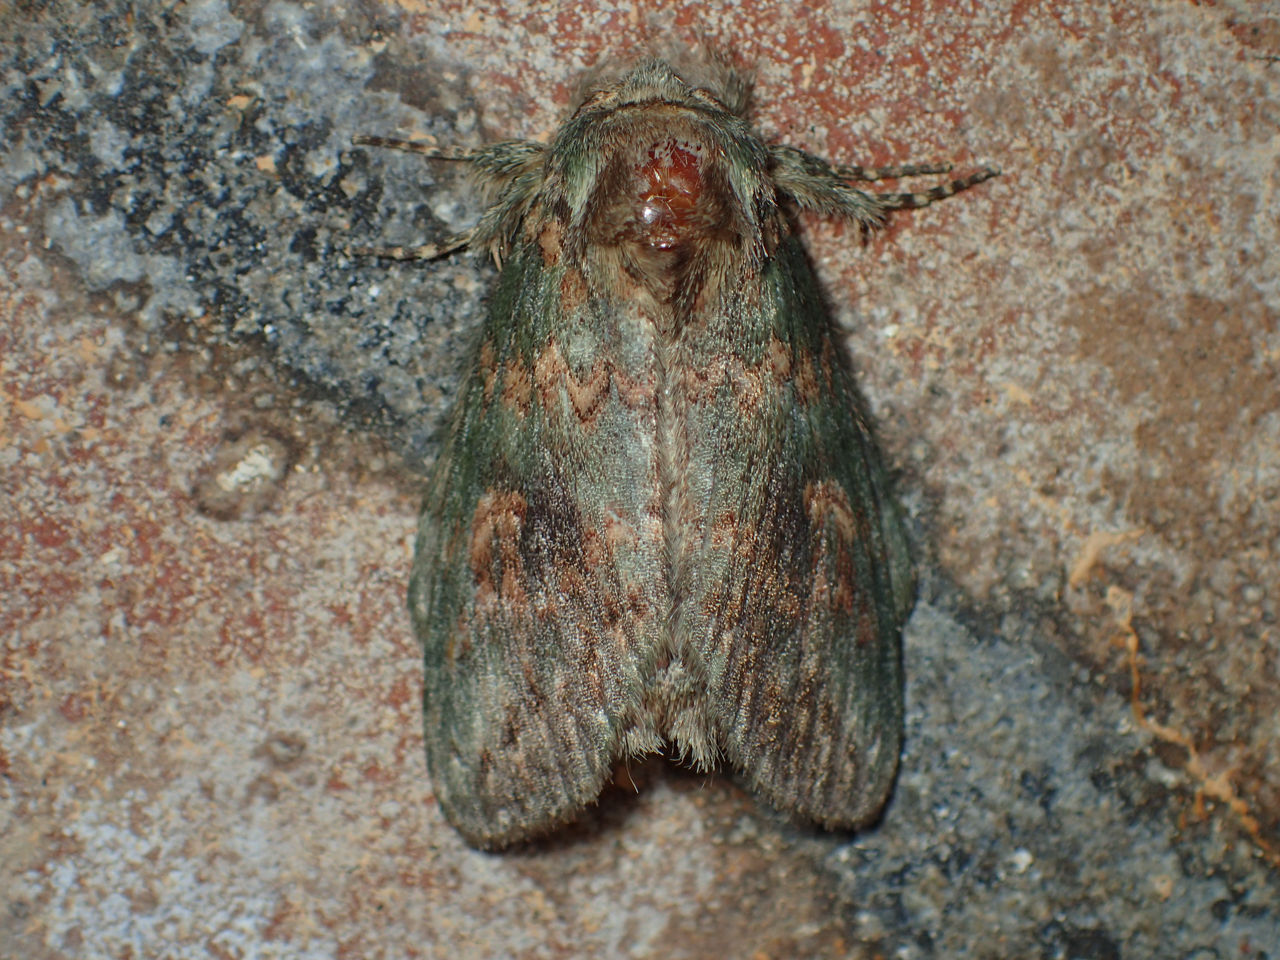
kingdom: Animalia
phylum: Arthropoda
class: Insecta
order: Lepidoptera
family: Notodontidae
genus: Disphragis
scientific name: Disphragis Cecrita biundata
